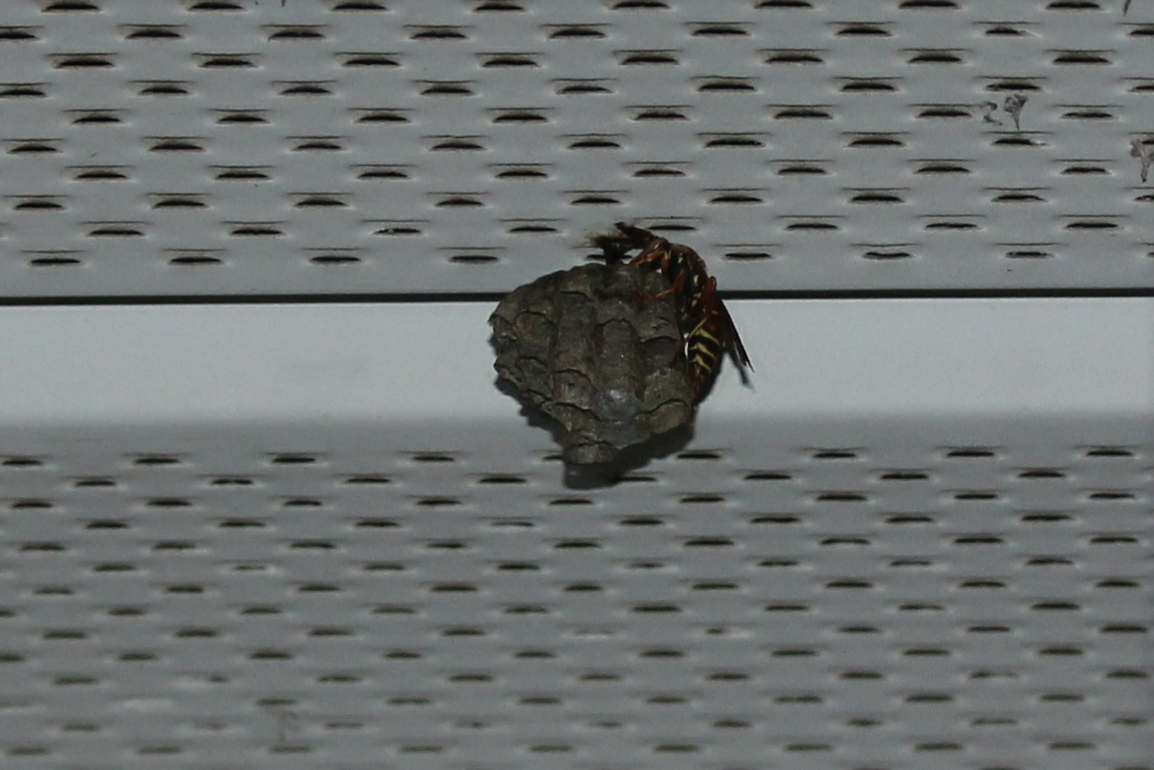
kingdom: Animalia
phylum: Arthropoda
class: Insecta
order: Hymenoptera
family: Eumenidae
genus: Polistes
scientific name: Polistes fuscatus
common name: Dark paper wasp
